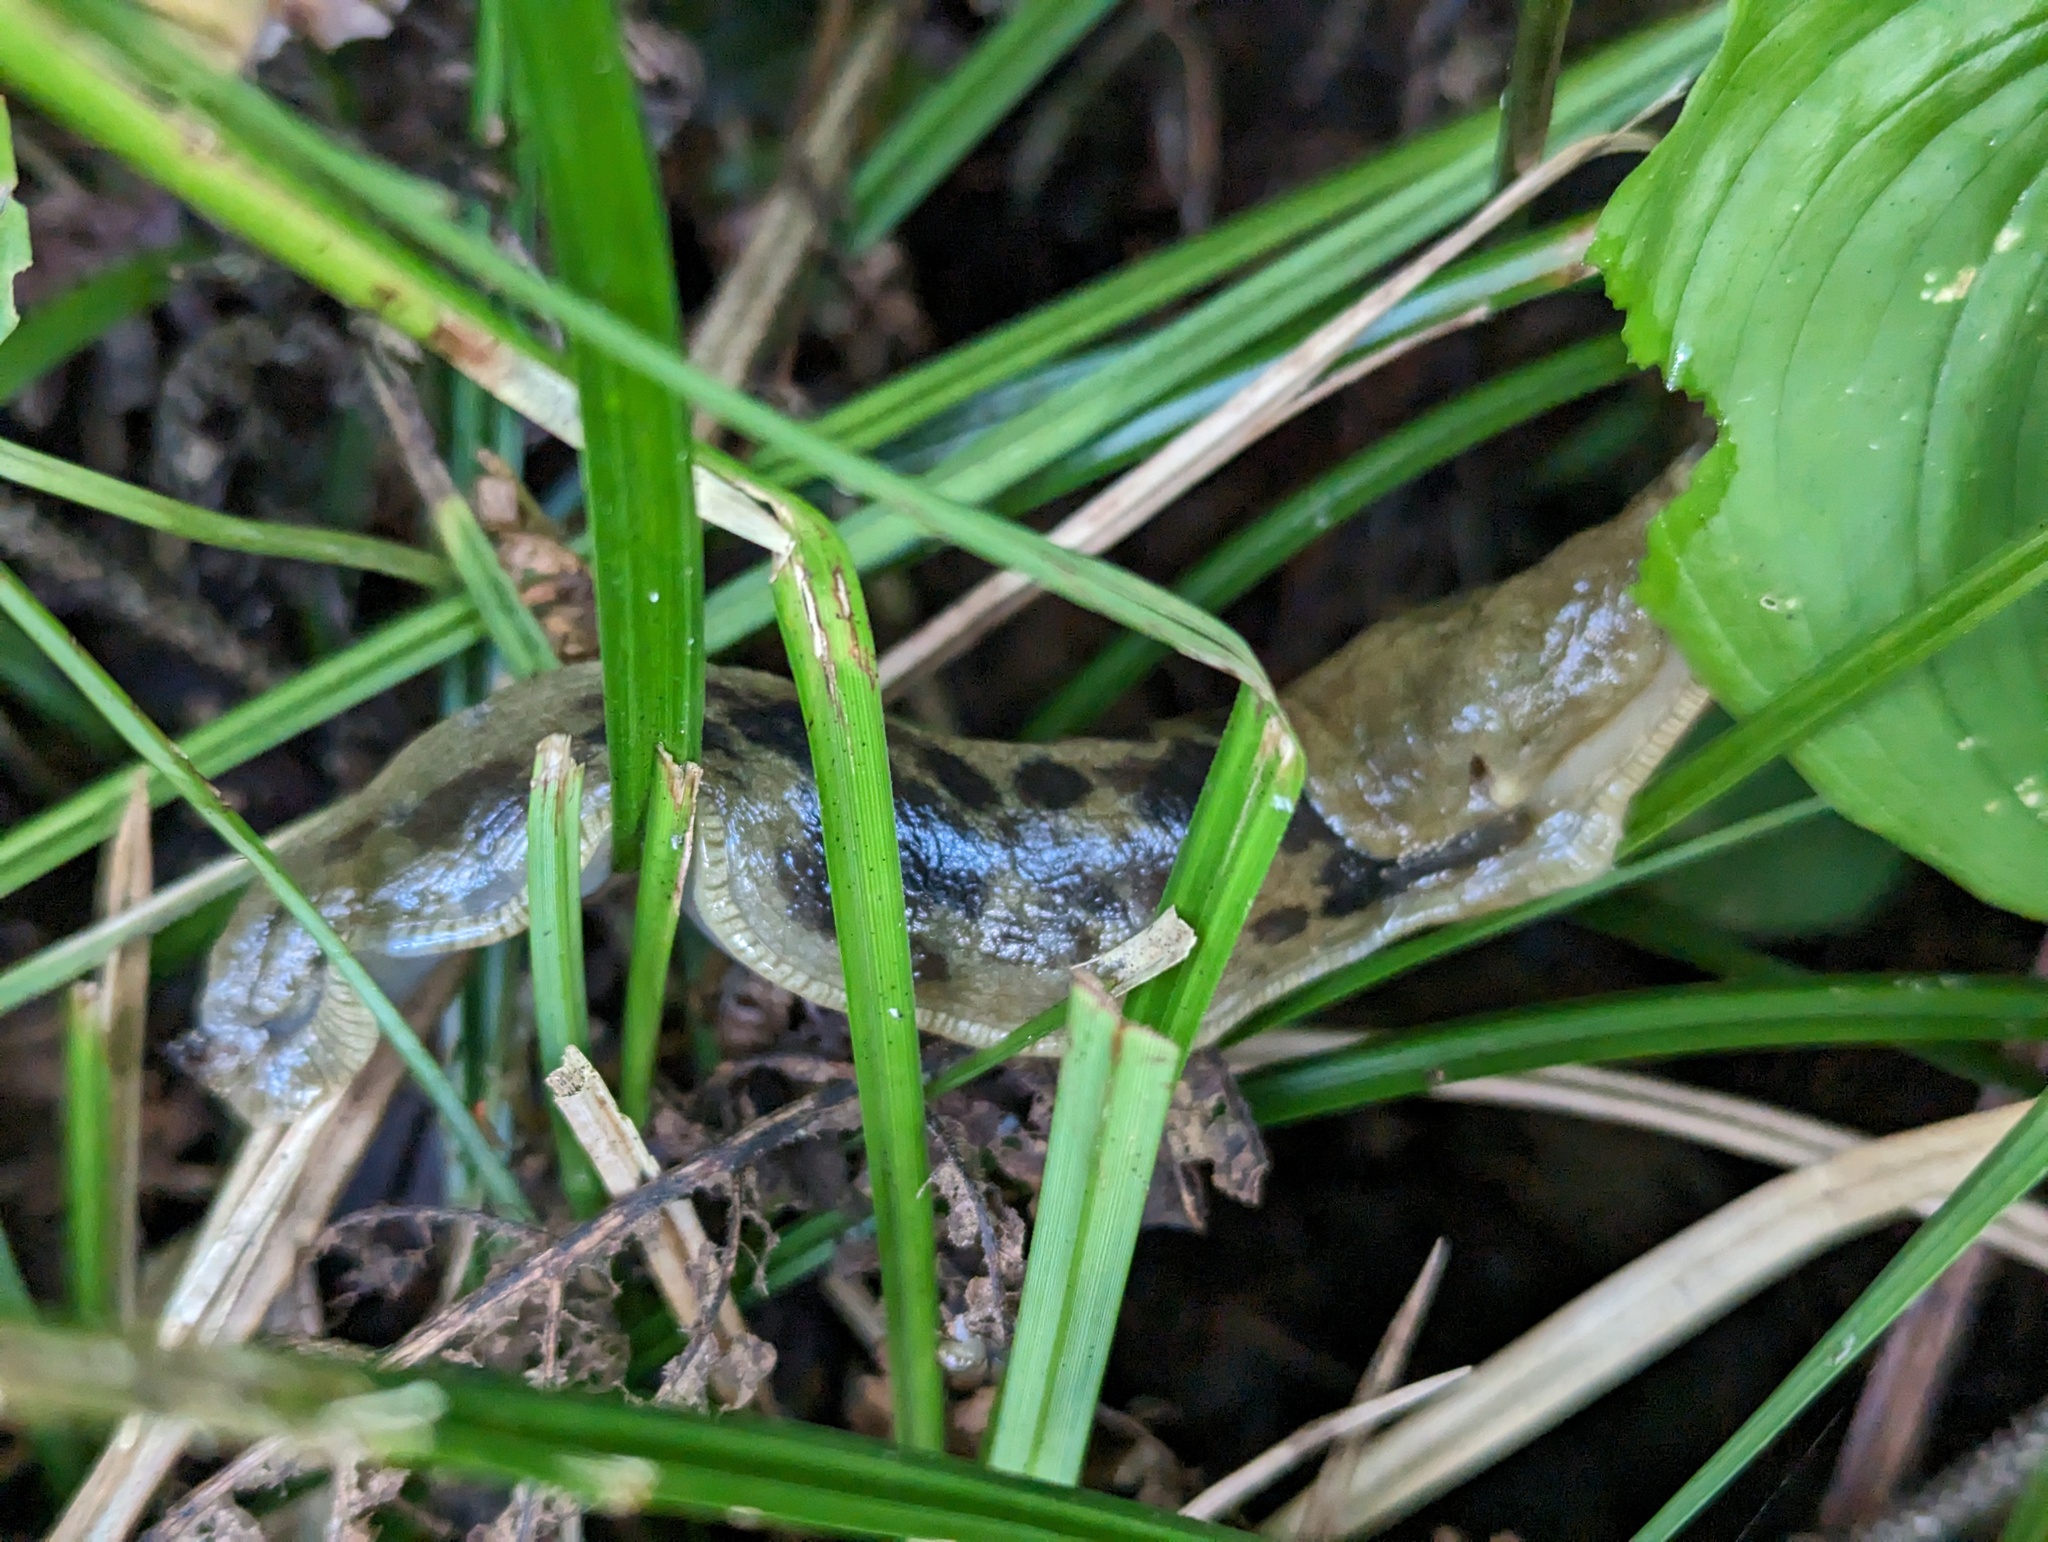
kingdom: Animalia
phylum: Mollusca
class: Gastropoda
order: Stylommatophora
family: Ariolimacidae
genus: Ariolimax
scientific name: Ariolimax columbianus
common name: Pacific banana slug
